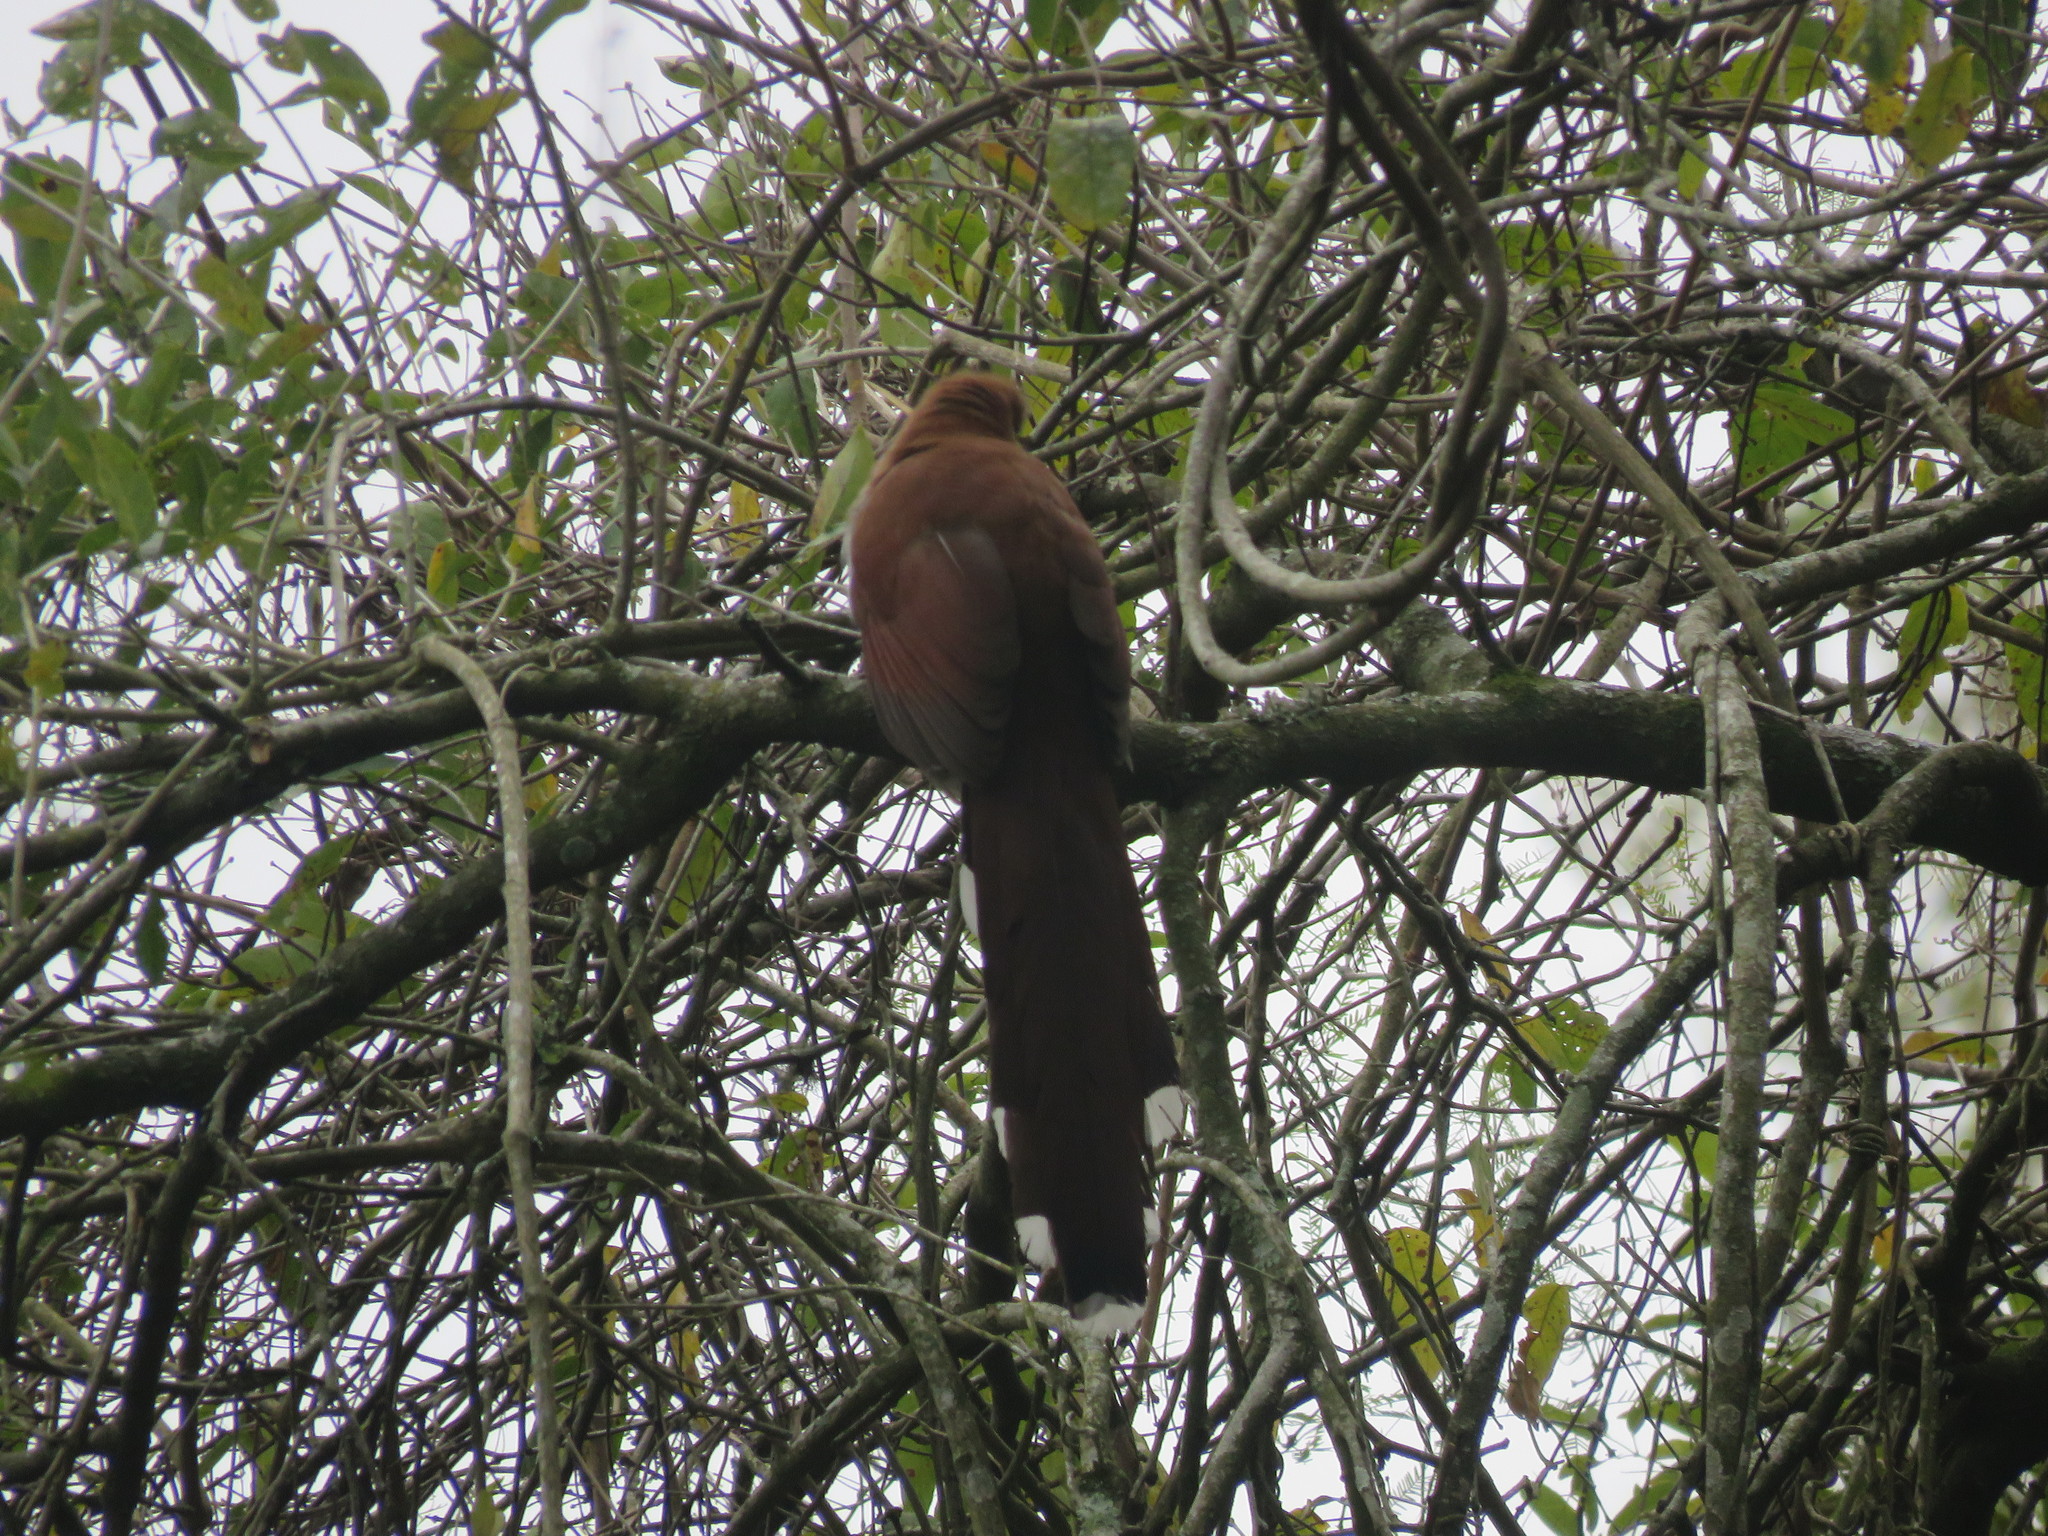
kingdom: Animalia
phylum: Chordata
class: Aves
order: Cuculiformes
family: Cuculidae
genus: Piaya
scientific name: Piaya cayana
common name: Squirrel cuckoo
